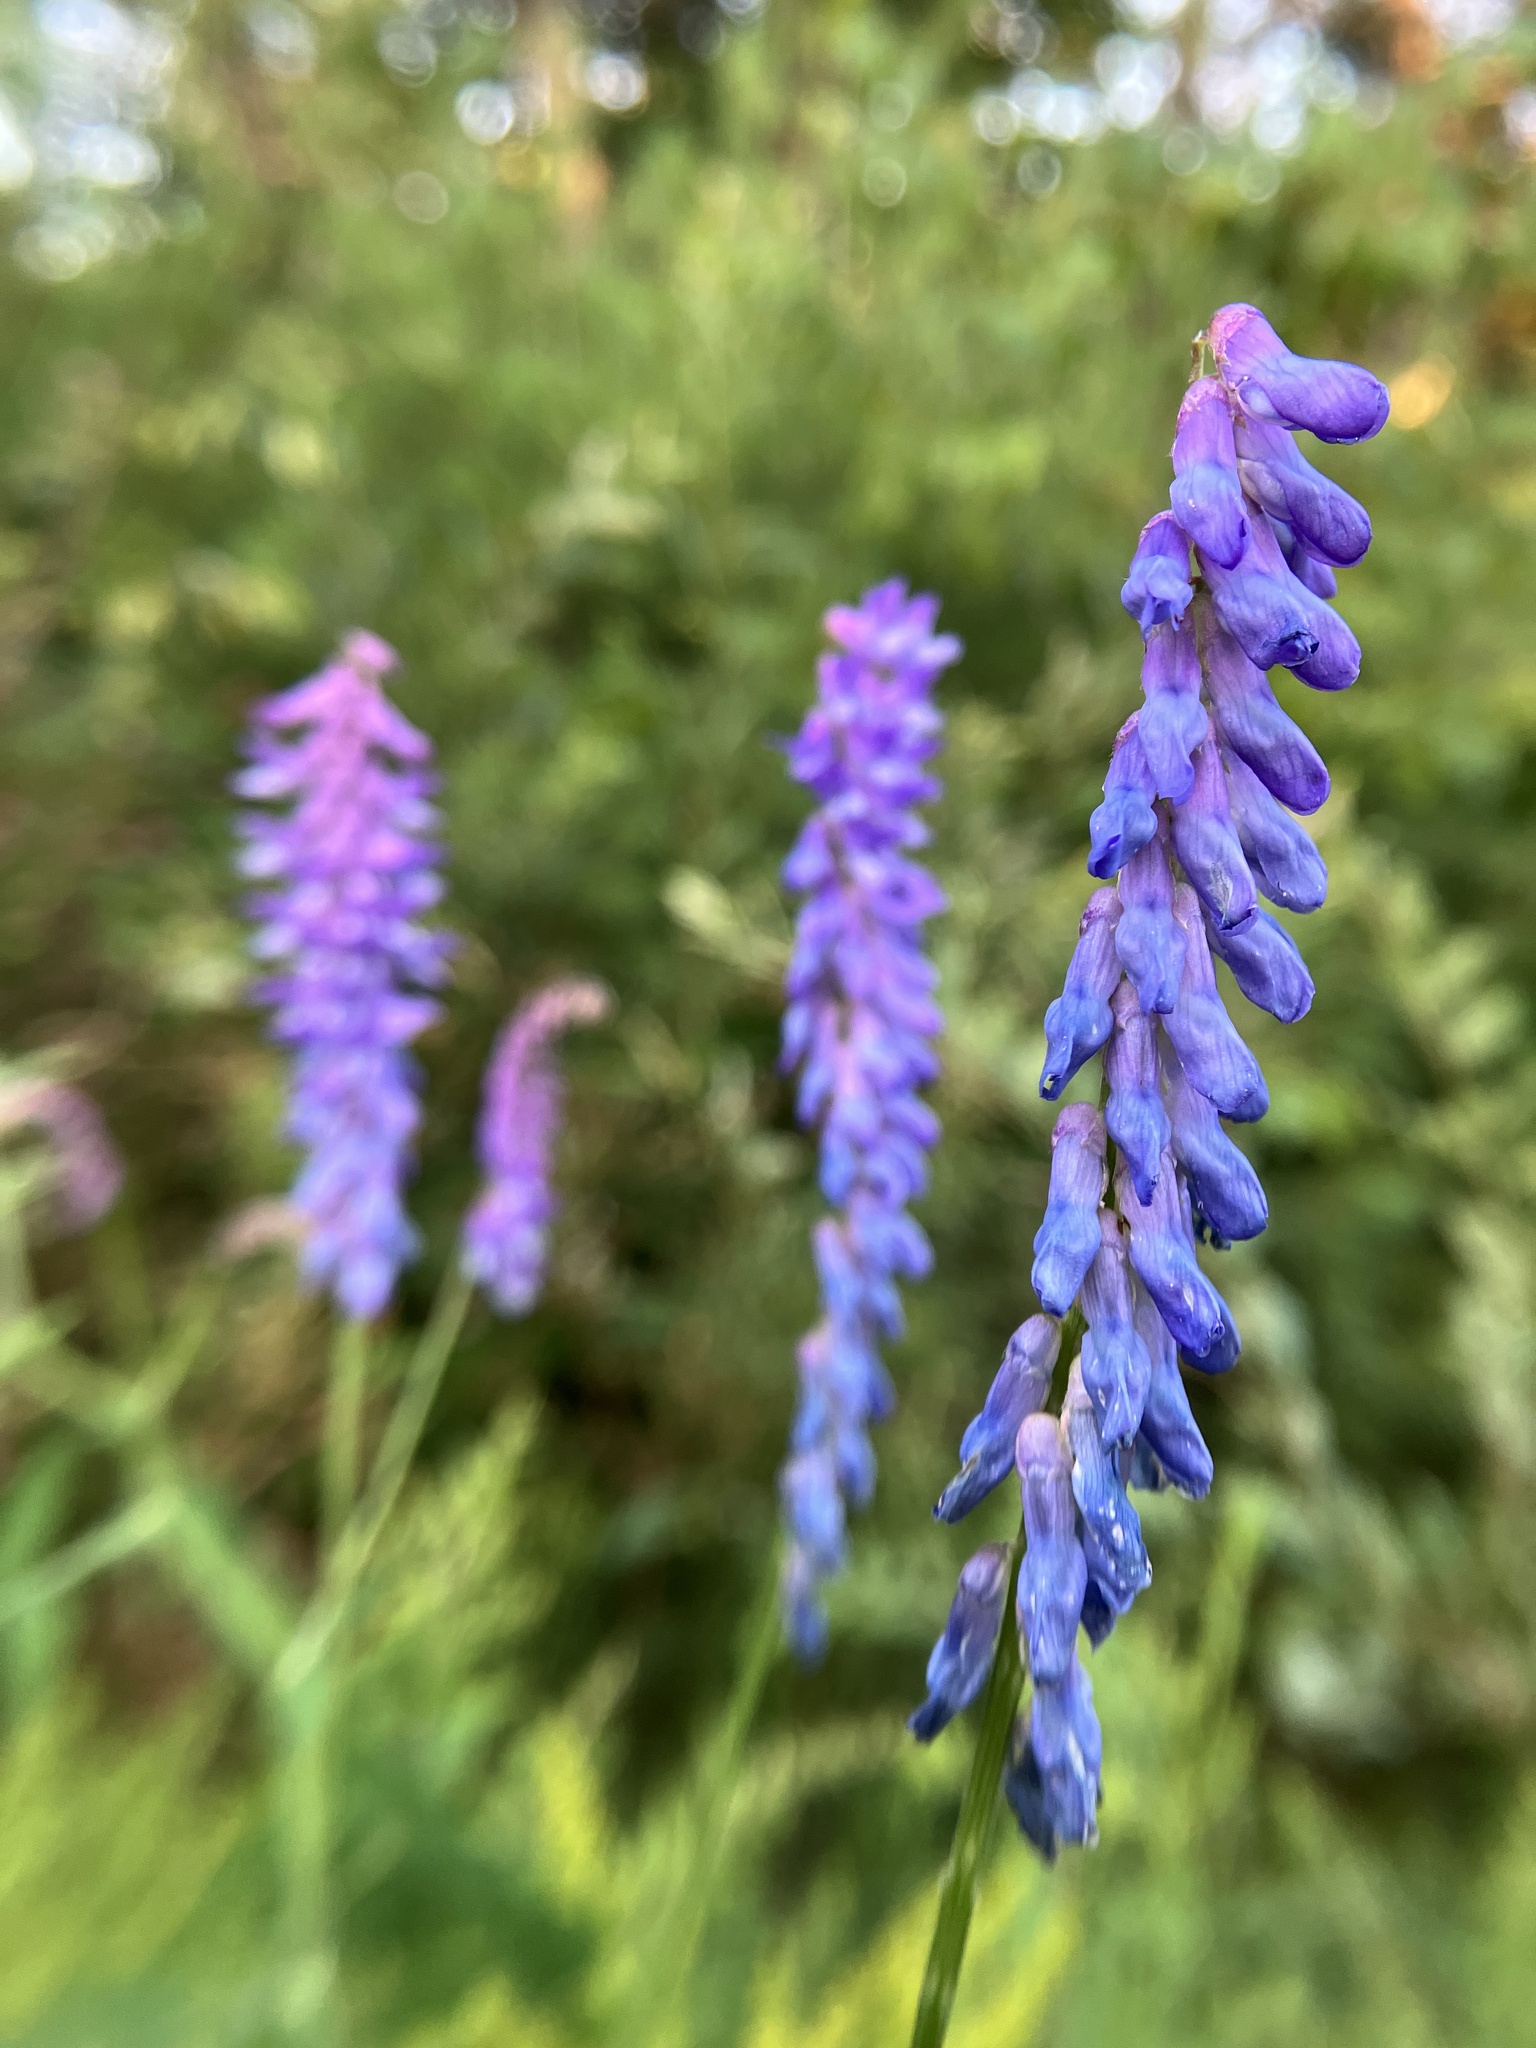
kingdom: Plantae
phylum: Tracheophyta
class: Magnoliopsida
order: Fabales
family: Fabaceae
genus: Vicia
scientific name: Vicia cracca
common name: Bird vetch
